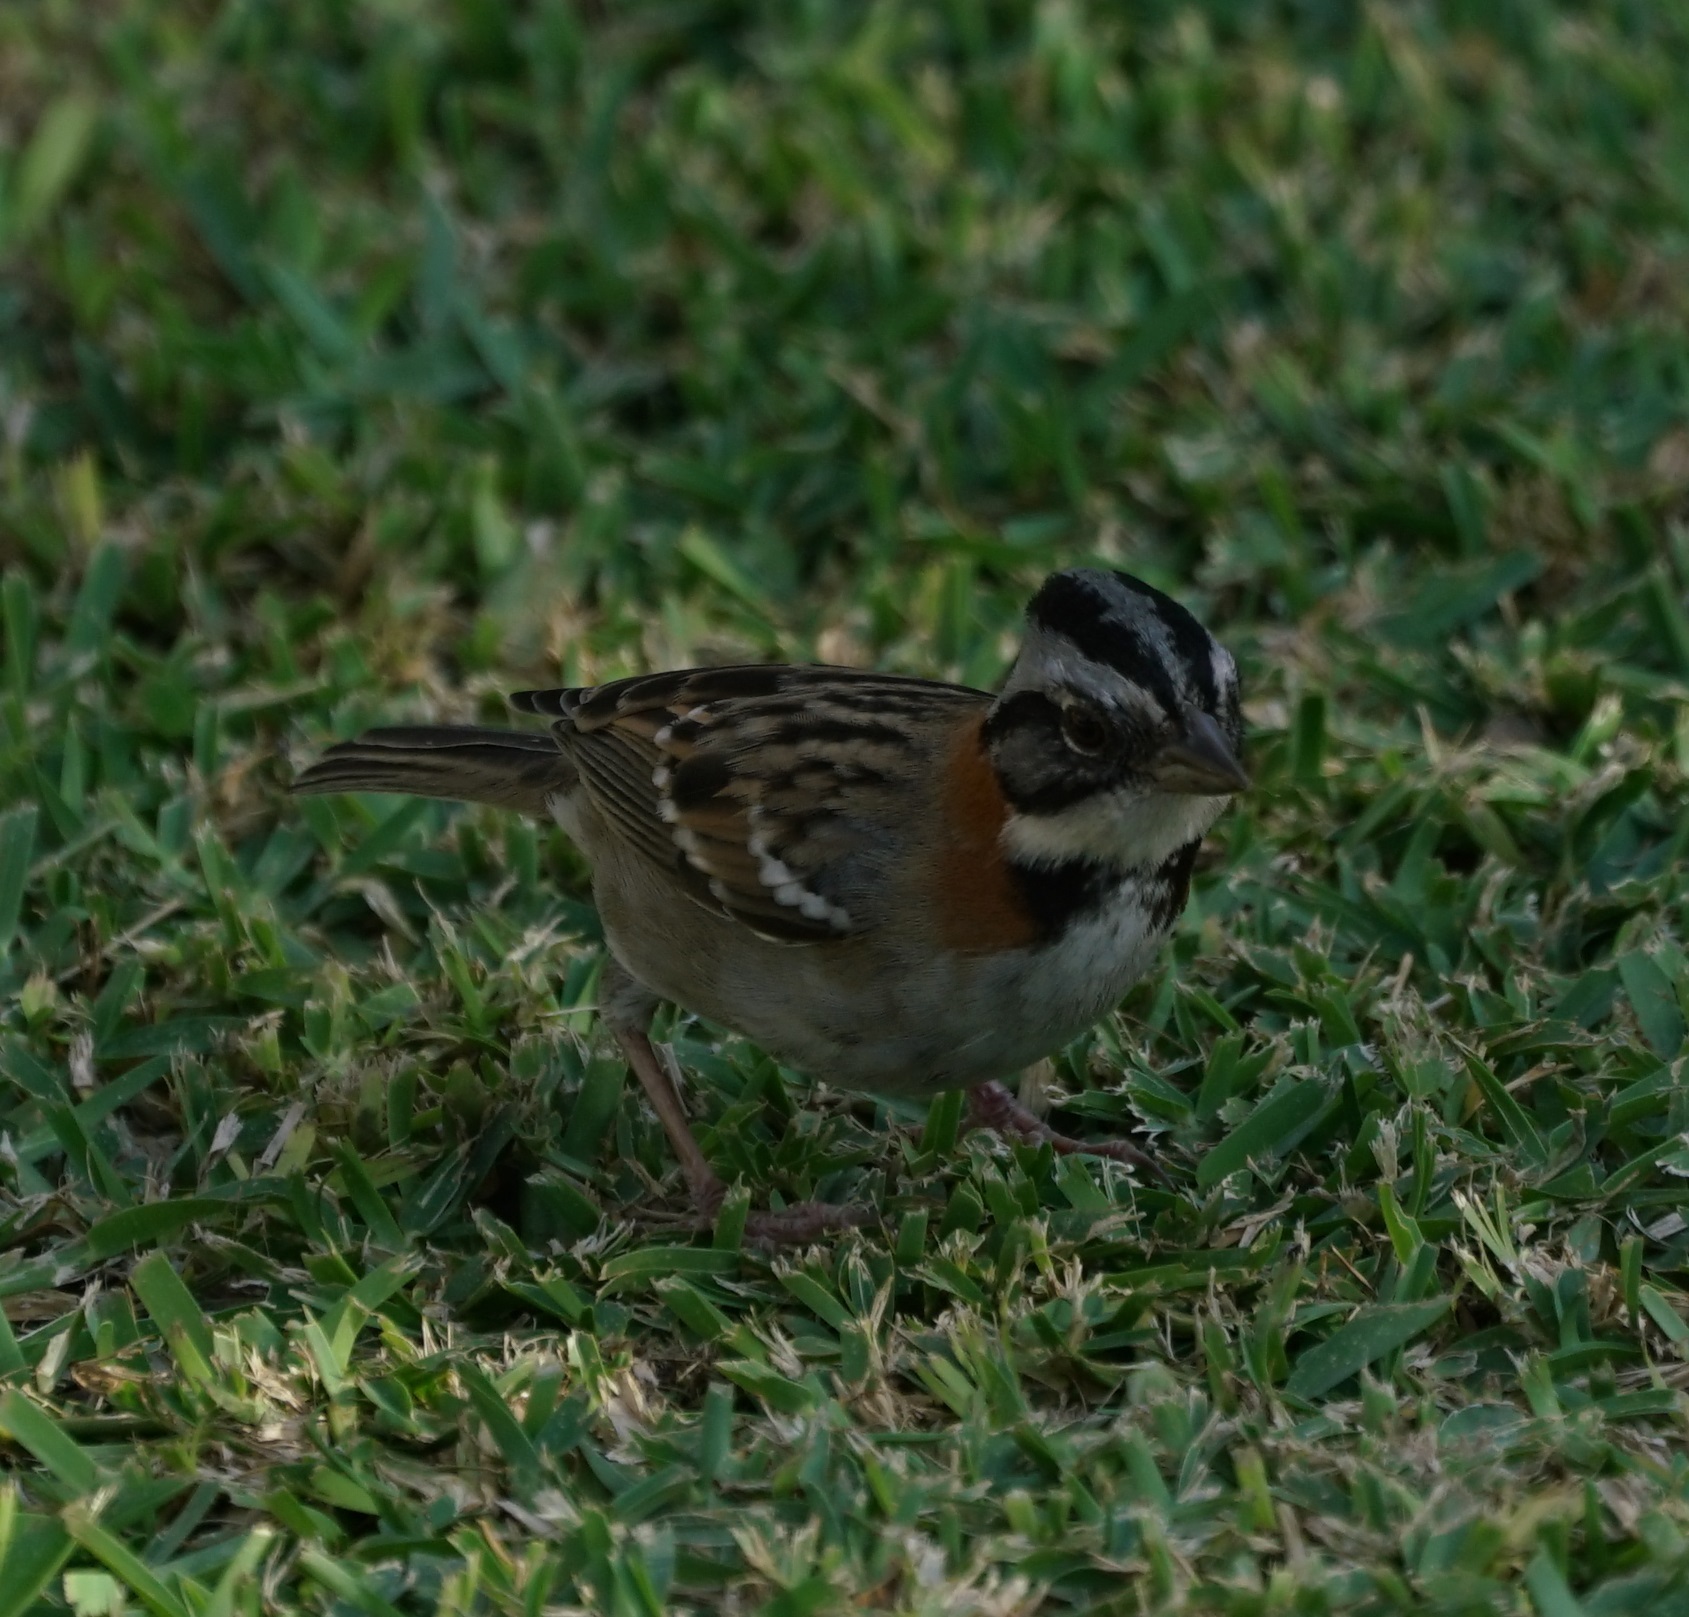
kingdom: Animalia
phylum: Chordata
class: Aves
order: Passeriformes
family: Passerellidae
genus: Zonotrichia
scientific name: Zonotrichia capensis
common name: Rufous-collared sparrow
